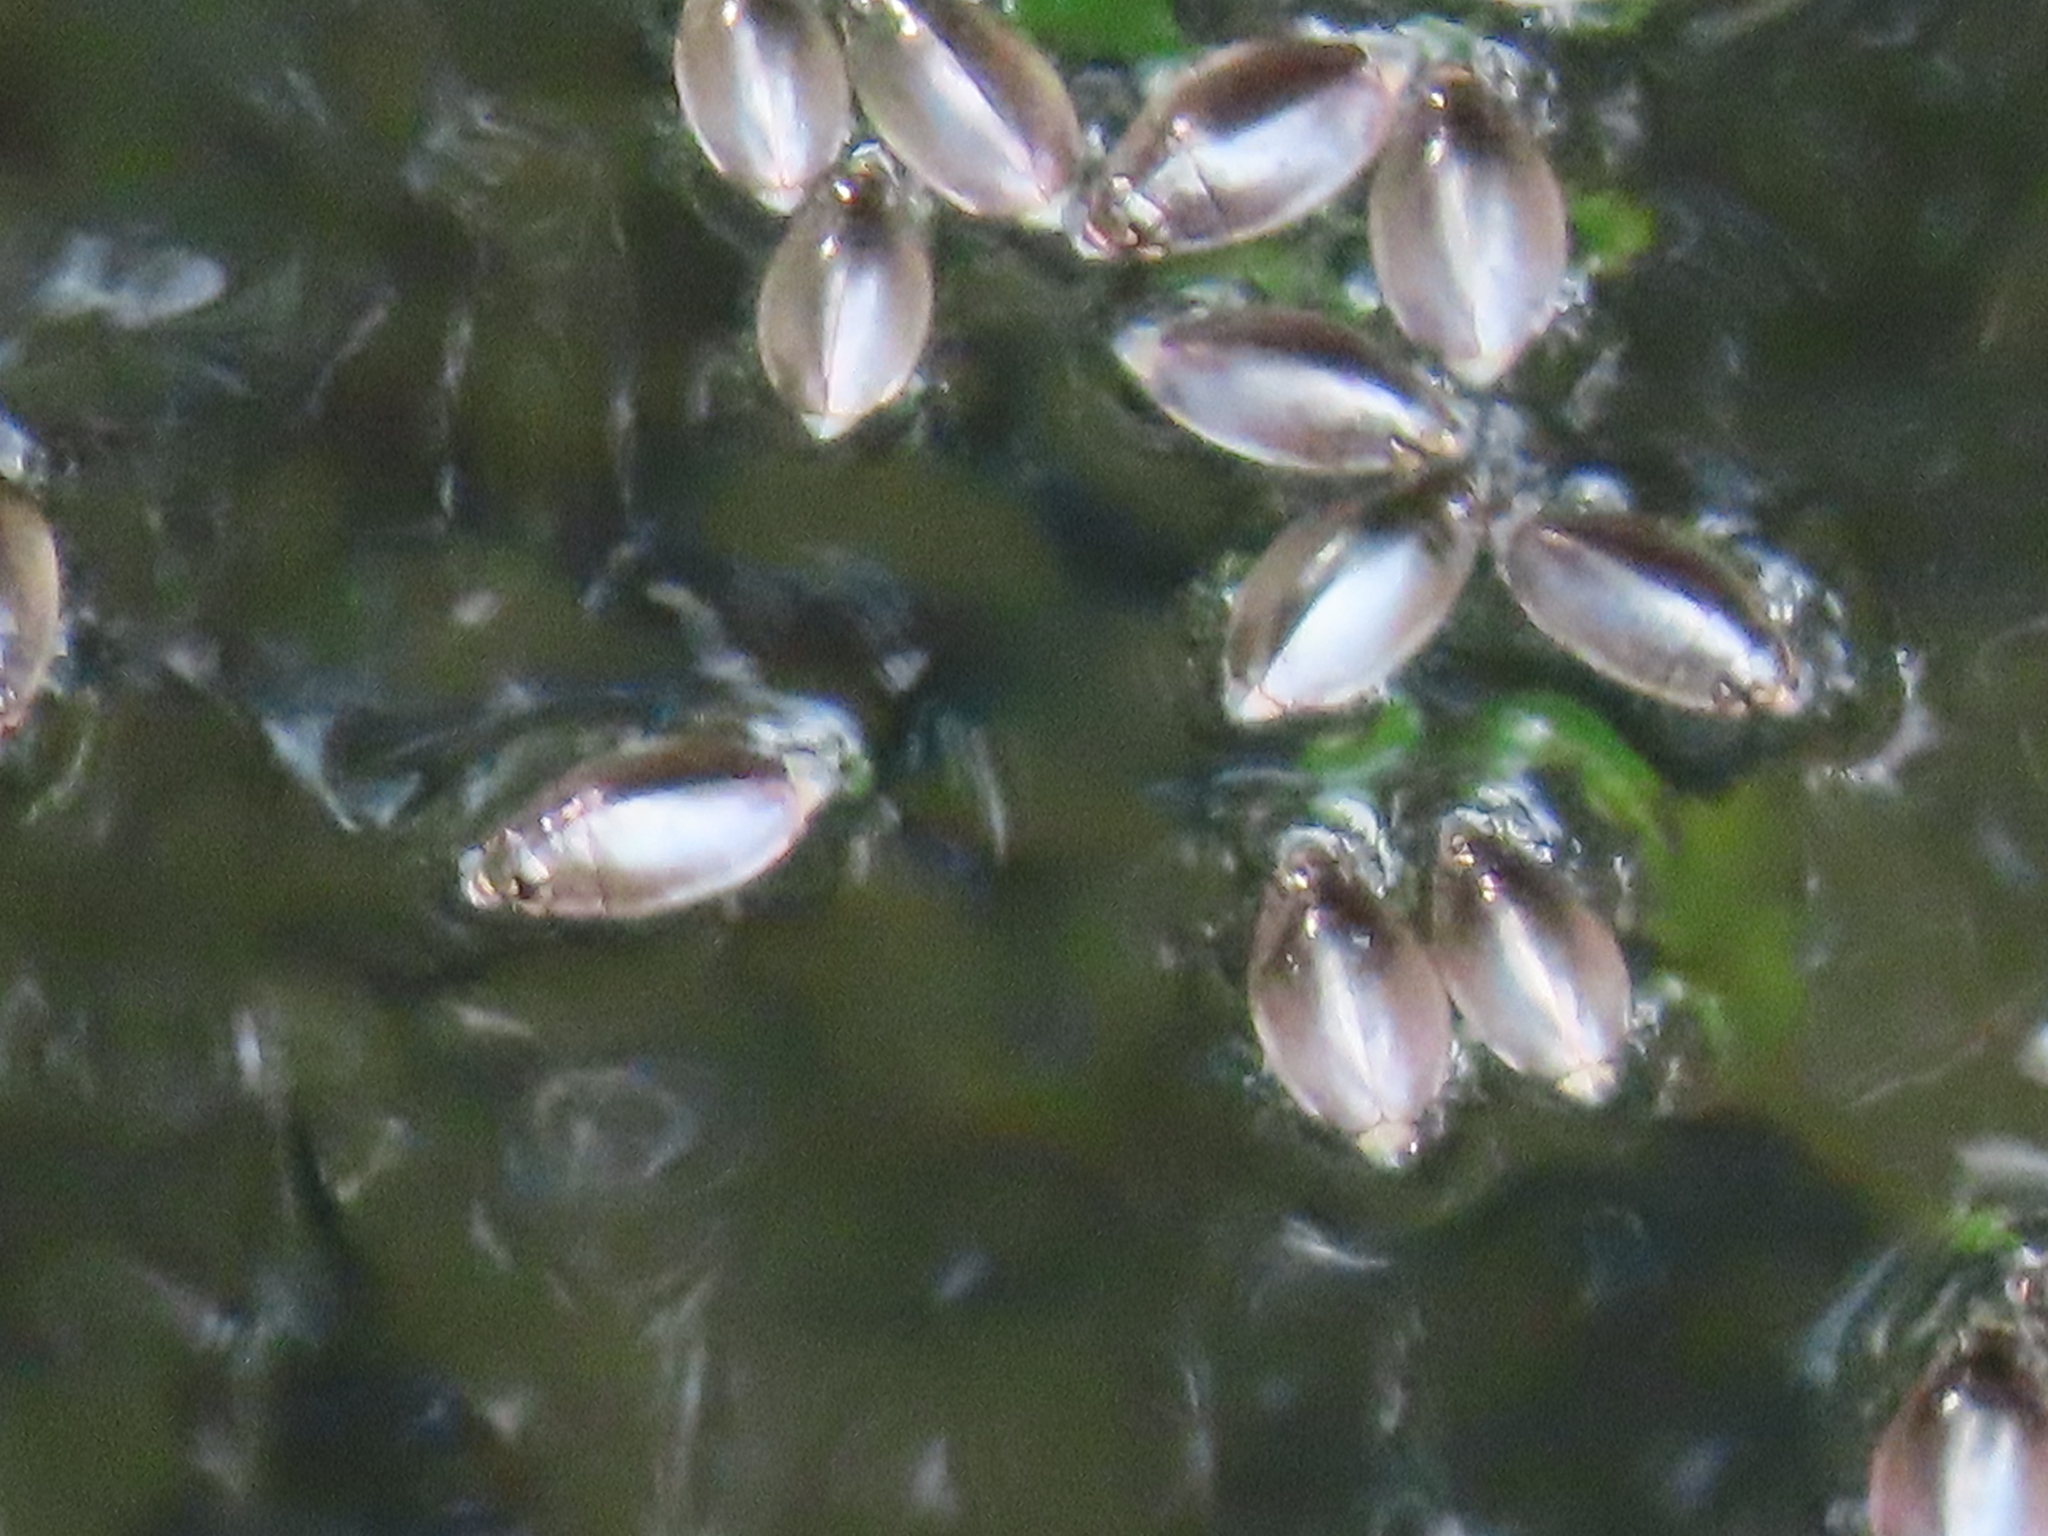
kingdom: Animalia
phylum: Arthropoda
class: Insecta
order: Coleoptera
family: Gyrinidae
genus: Dineutus
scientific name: Dineutus
